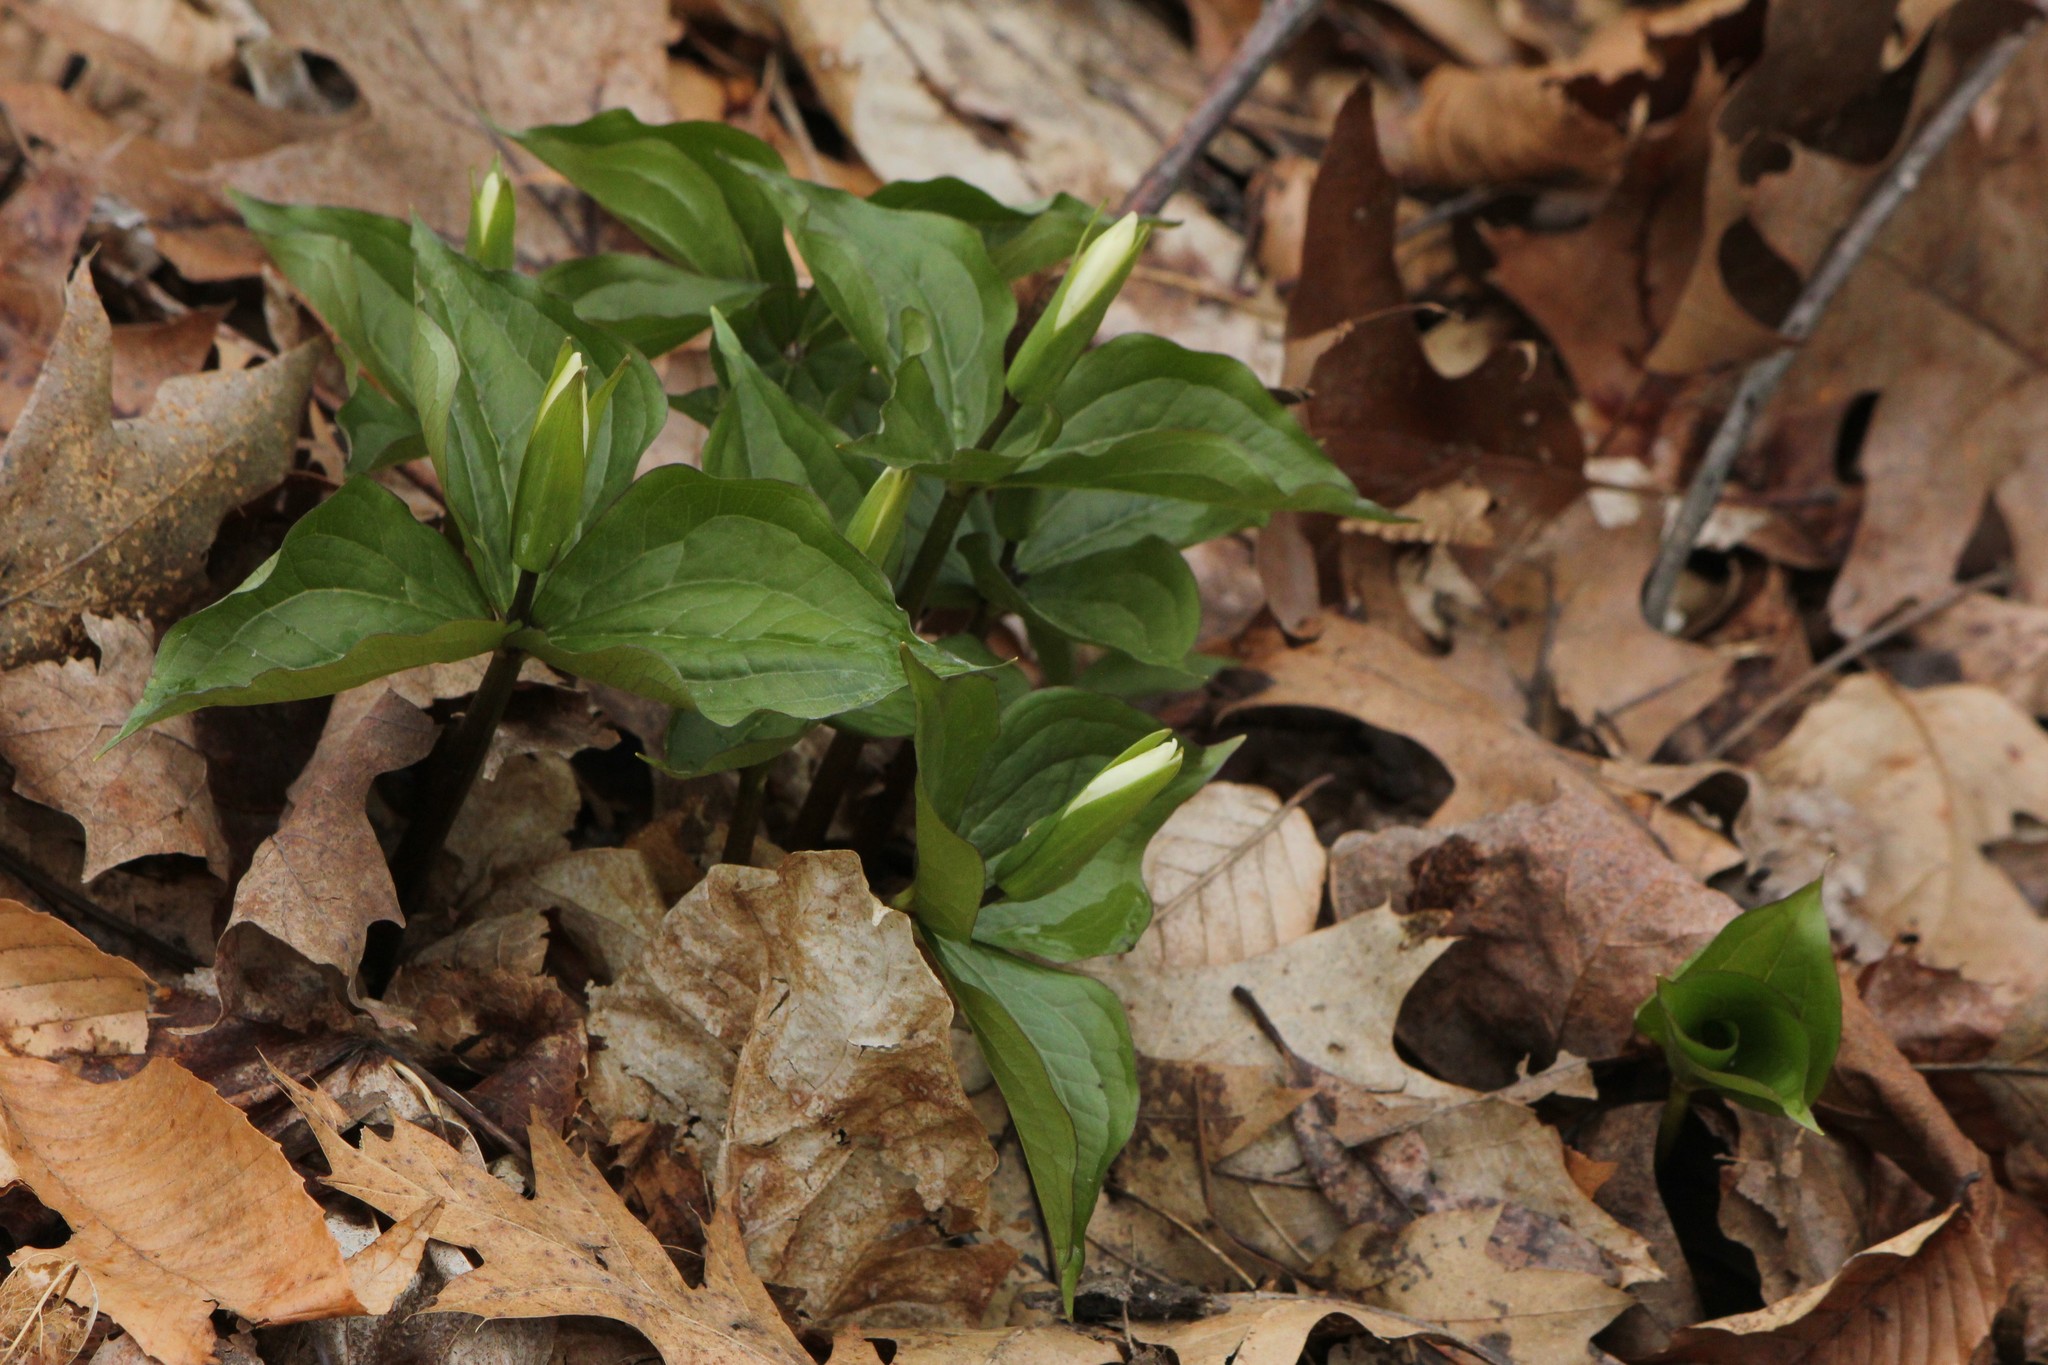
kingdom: Plantae
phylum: Tracheophyta
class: Liliopsida
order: Liliales
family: Melanthiaceae
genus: Trillium
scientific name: Trillium grandiflorum
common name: Great white trillium
